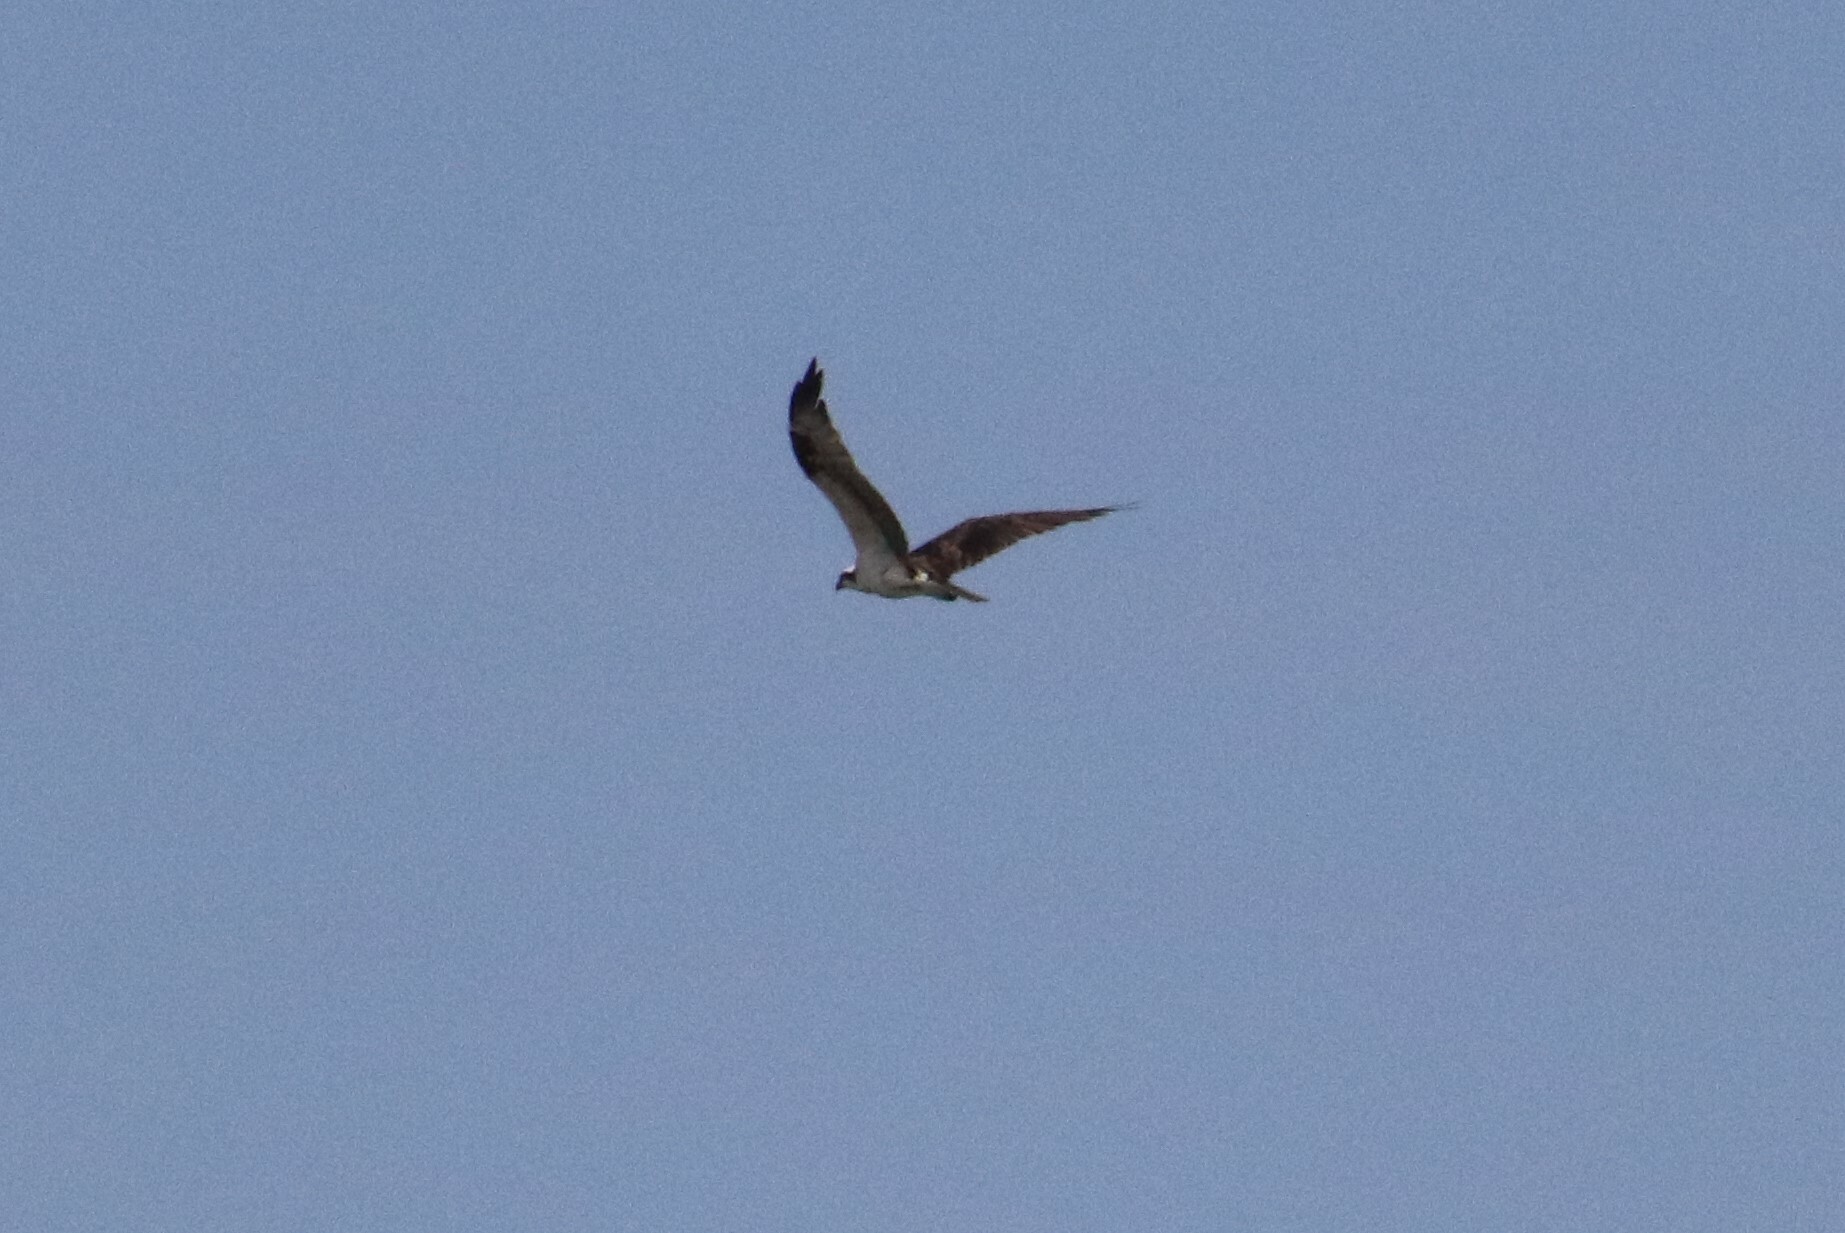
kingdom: Animalia
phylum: Chordata
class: Aves
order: Accipitriformes
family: Pandionidae
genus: Pandion
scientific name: Pandion haliaetus
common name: Osprey
